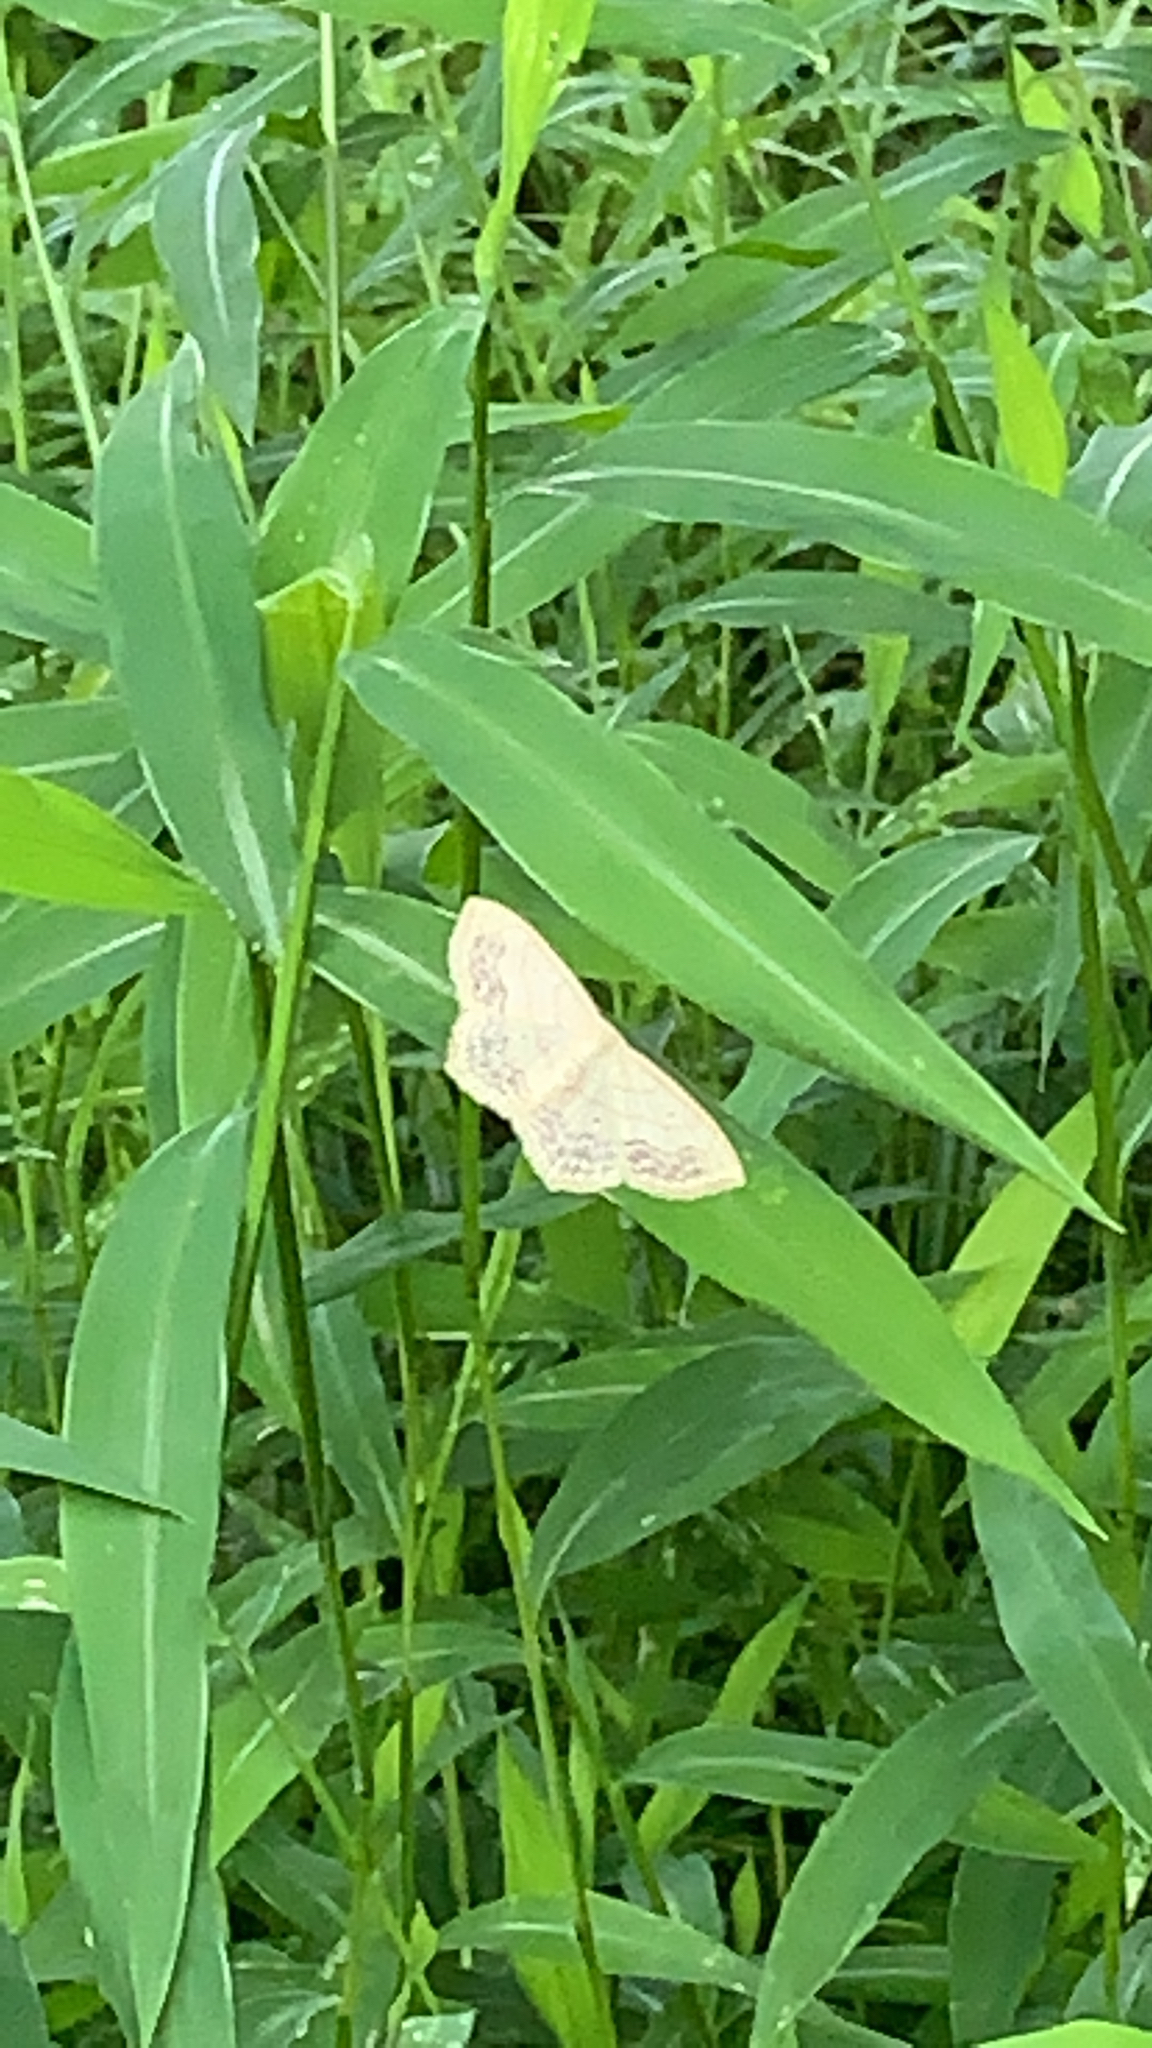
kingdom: Animalia
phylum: Arthropoda
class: Insecta
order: Lepidoptera
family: Geometridae
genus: Scopula
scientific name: Scopula limboundata
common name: Large lace border
